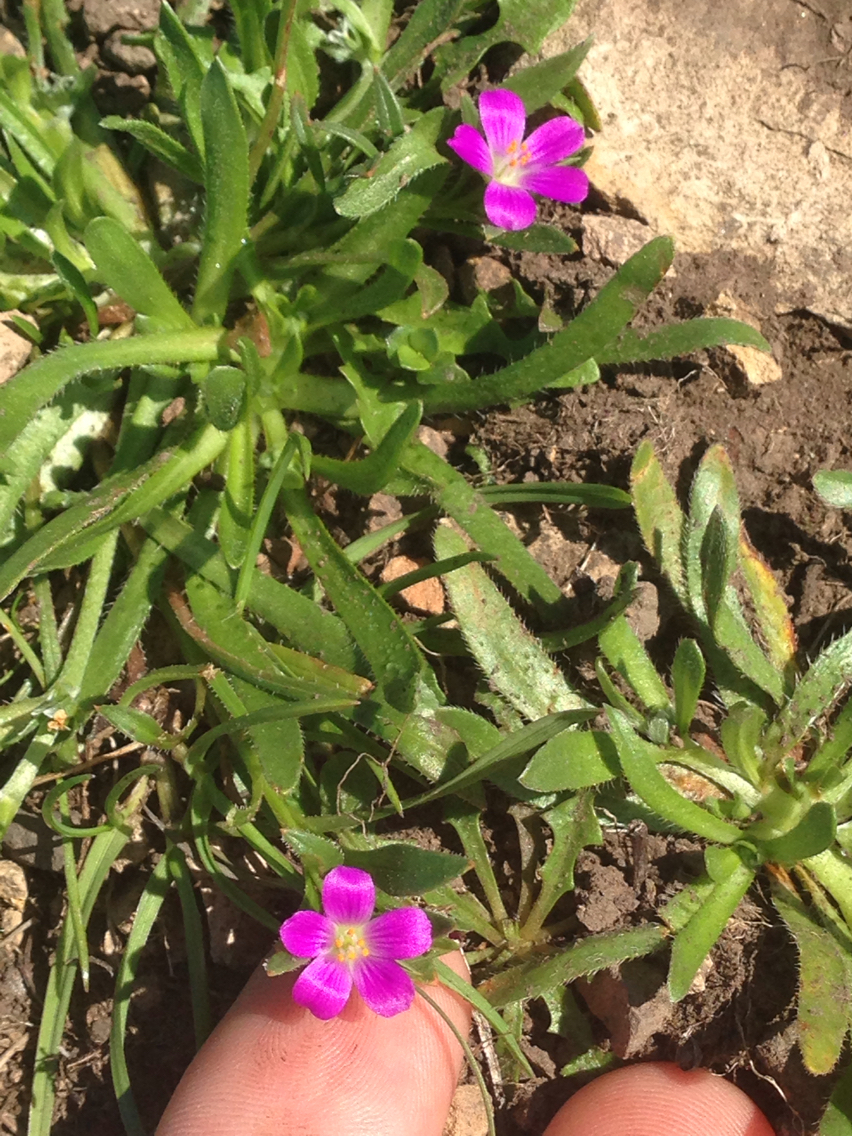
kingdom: Plantae
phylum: Tracheophyta
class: Magnoliopsida
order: Caryophyllales
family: Montiaceae
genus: Calandrinia
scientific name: Calandrinia menziesii
